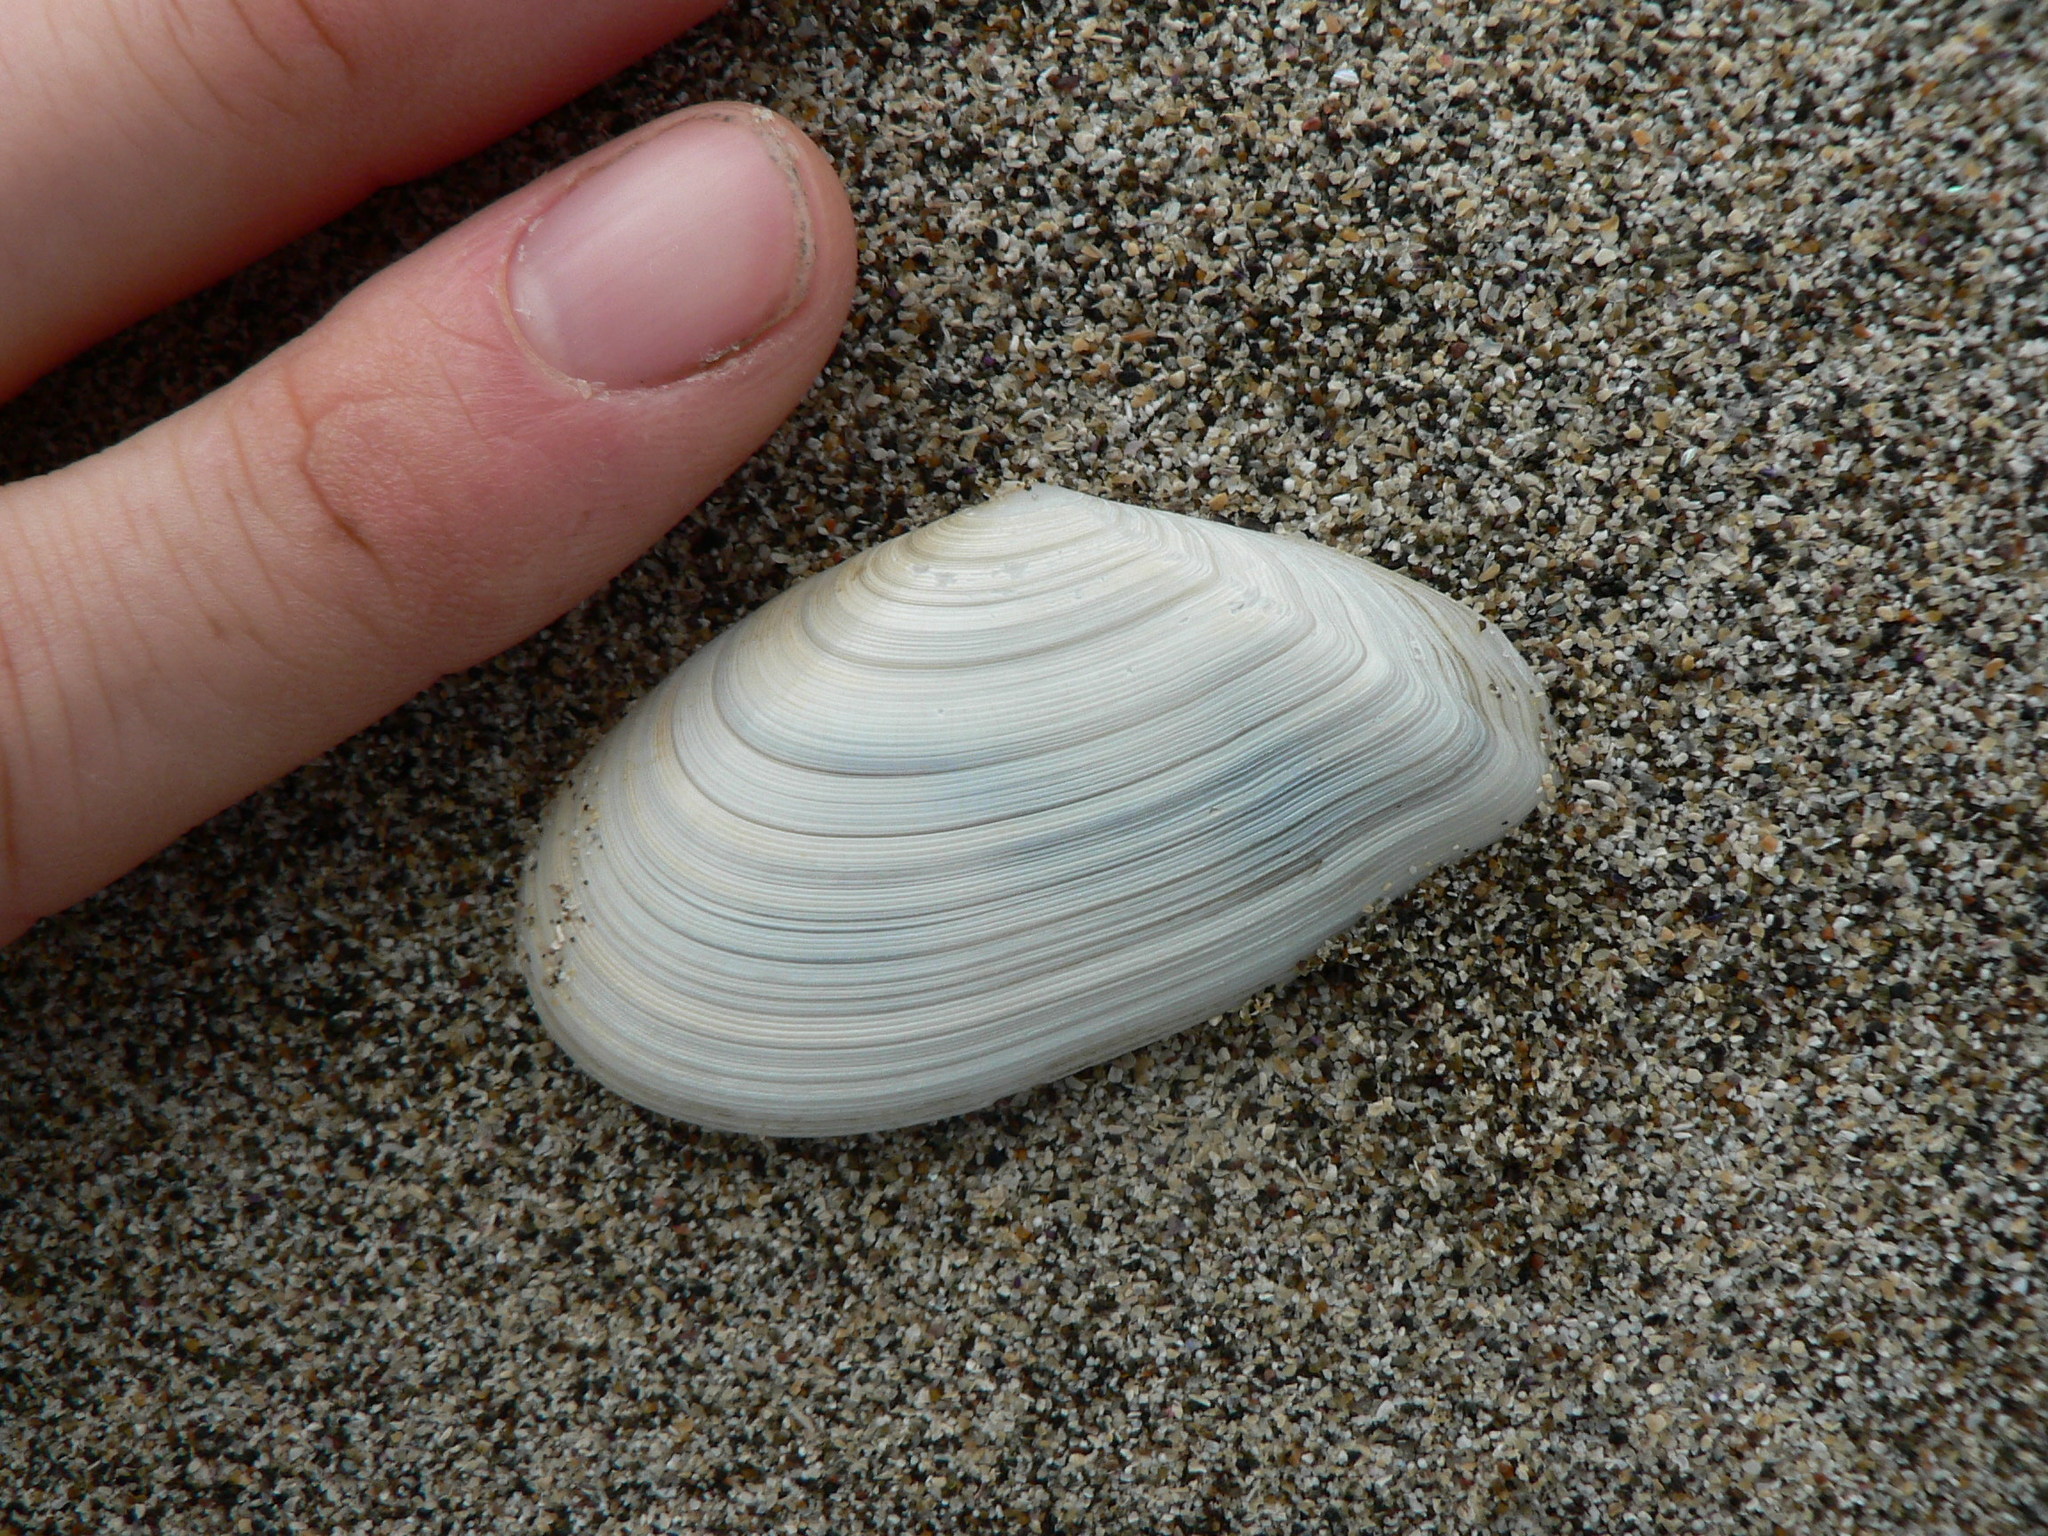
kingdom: Animalia
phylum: Mollusca
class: Bivalvia
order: Cardiida
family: Tellinidae
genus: Megangulus
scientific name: Megangulus bodegensis
